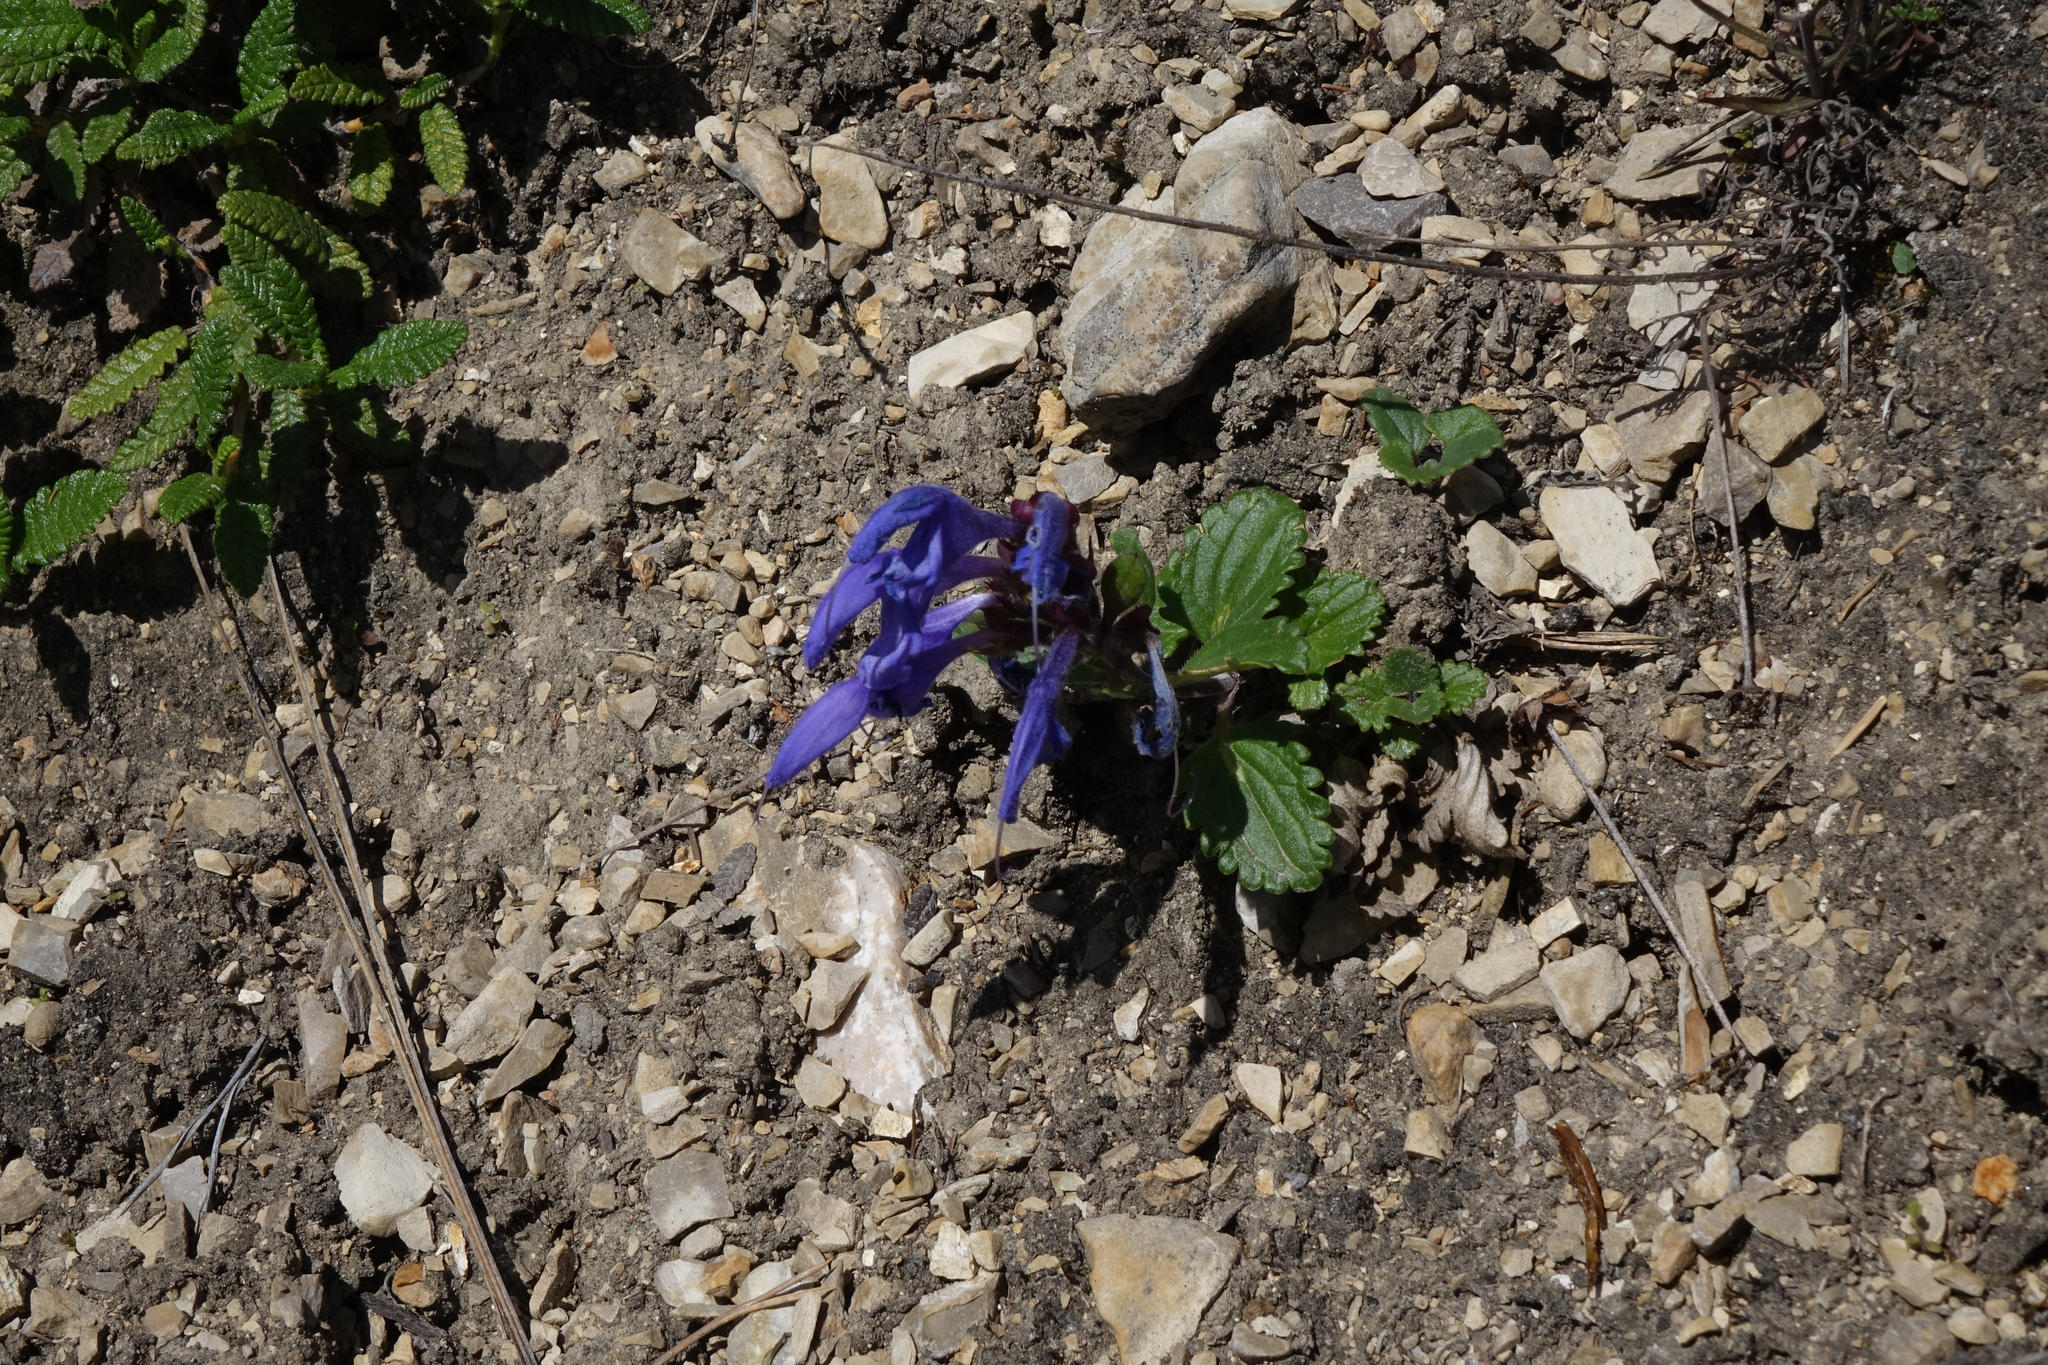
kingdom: Plantae
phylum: Tracheophyta
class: Magnoliopsida
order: Lamiales
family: Lamiaceae
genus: Dracocephalum
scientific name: Dracocephalum stellerianum
